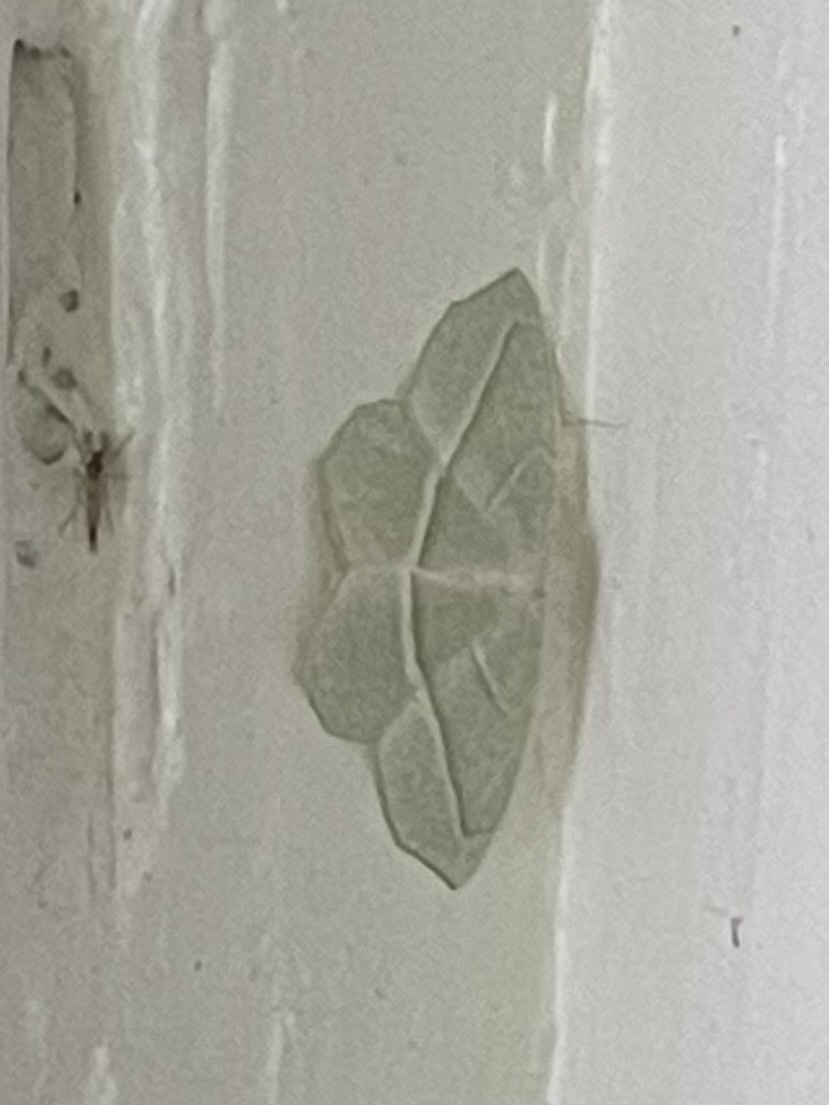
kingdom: Animalia
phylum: Arthropoda
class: Insecta
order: Lepidoptera
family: Geometridae
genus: Campaea
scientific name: Campaea perlata
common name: Fringed looper
